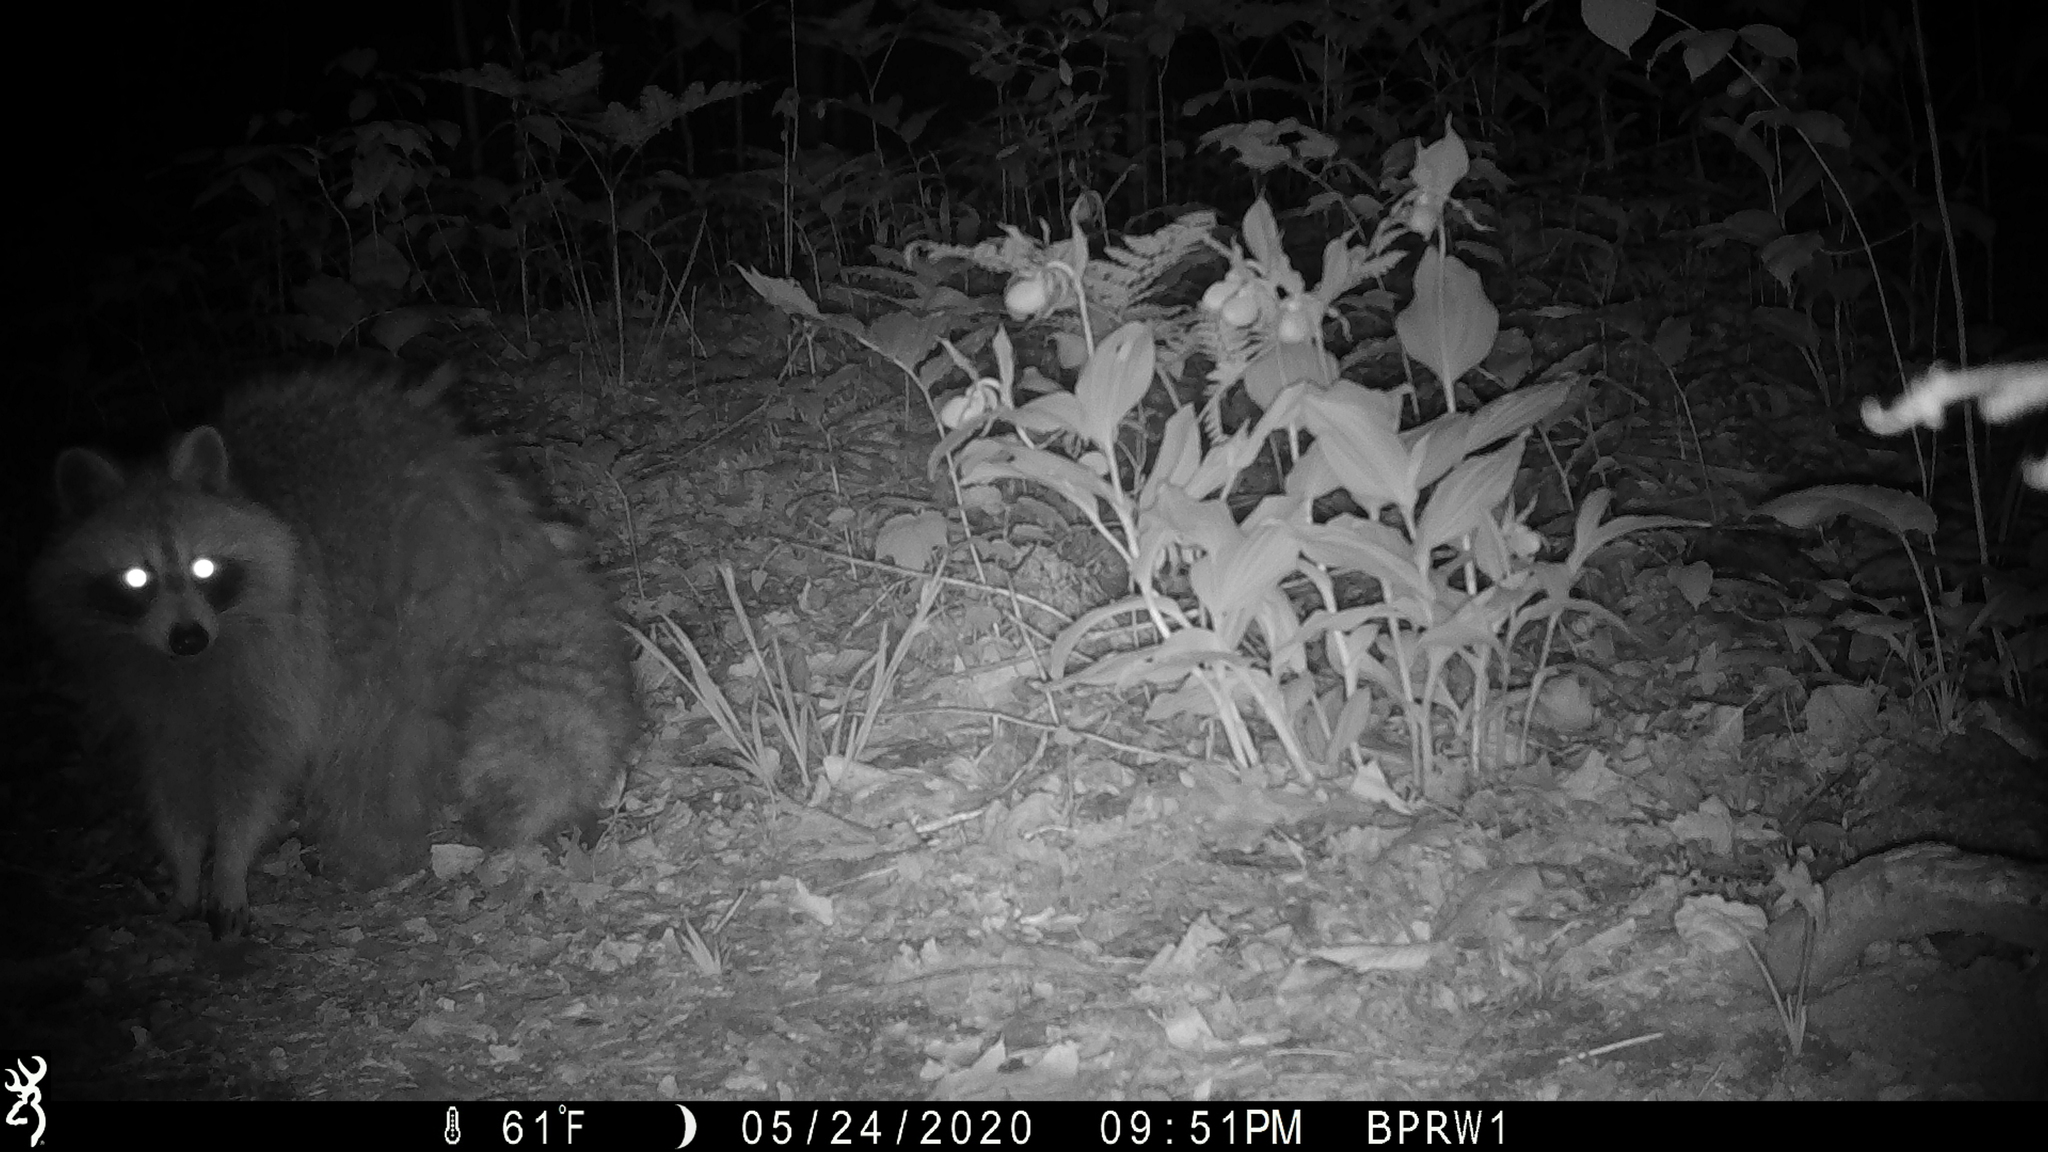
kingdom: Animalia
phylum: Chordata
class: Mammalia
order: Carnivora
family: Procyonidae
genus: Procyon
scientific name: Procyon lotor
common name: Raccoon
